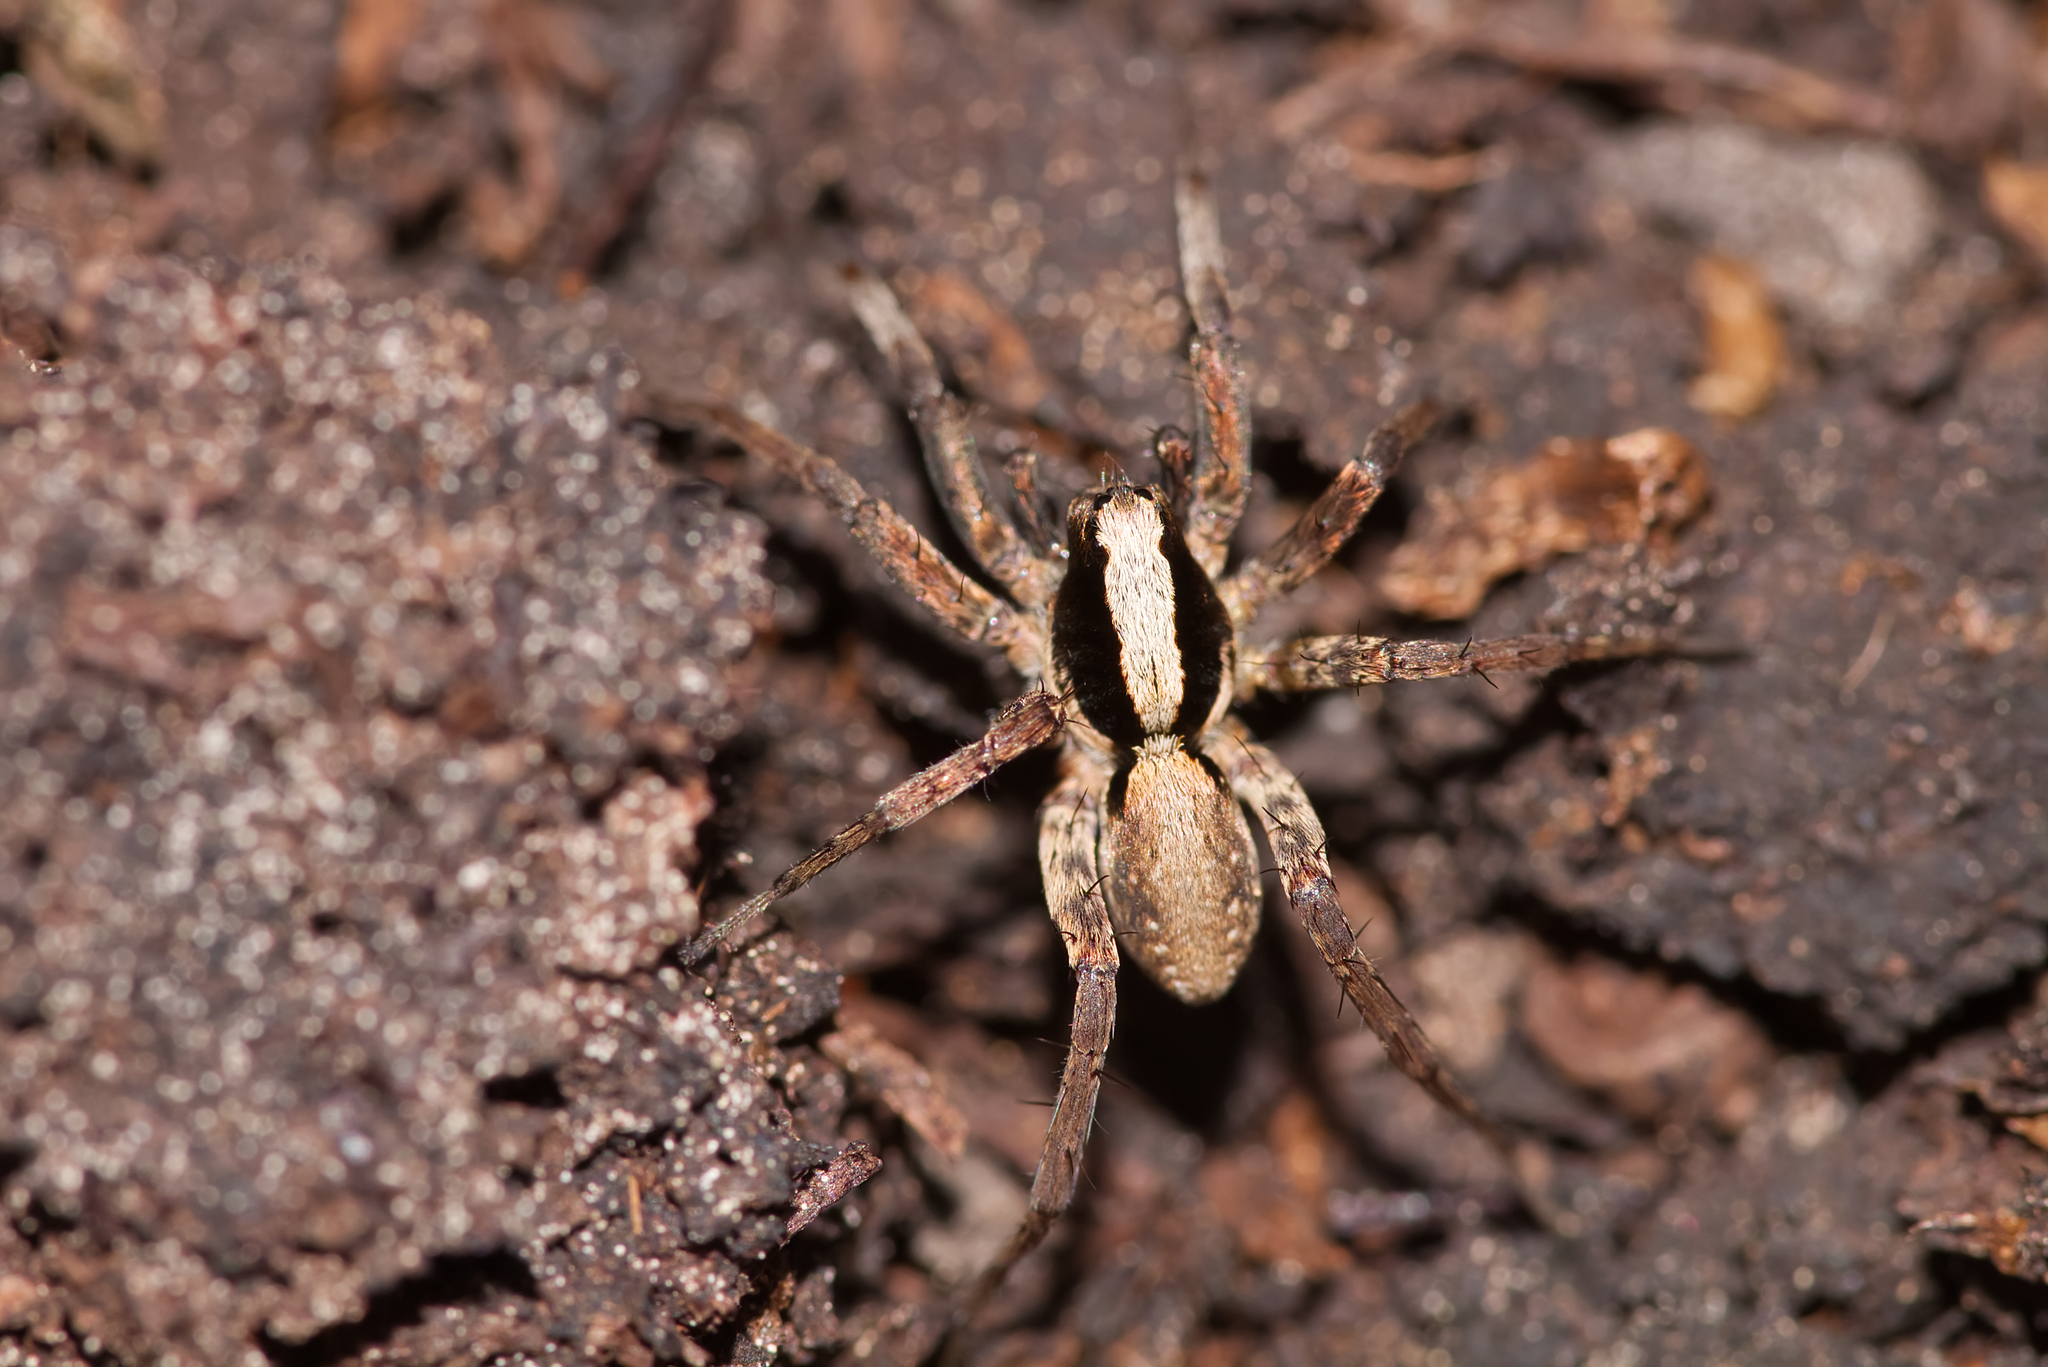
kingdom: Animalia
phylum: Arthropoda
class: Arachnida
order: Araneae
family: Lycosidae
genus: Xerolycosa
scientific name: Xerolycosa nemoralis
